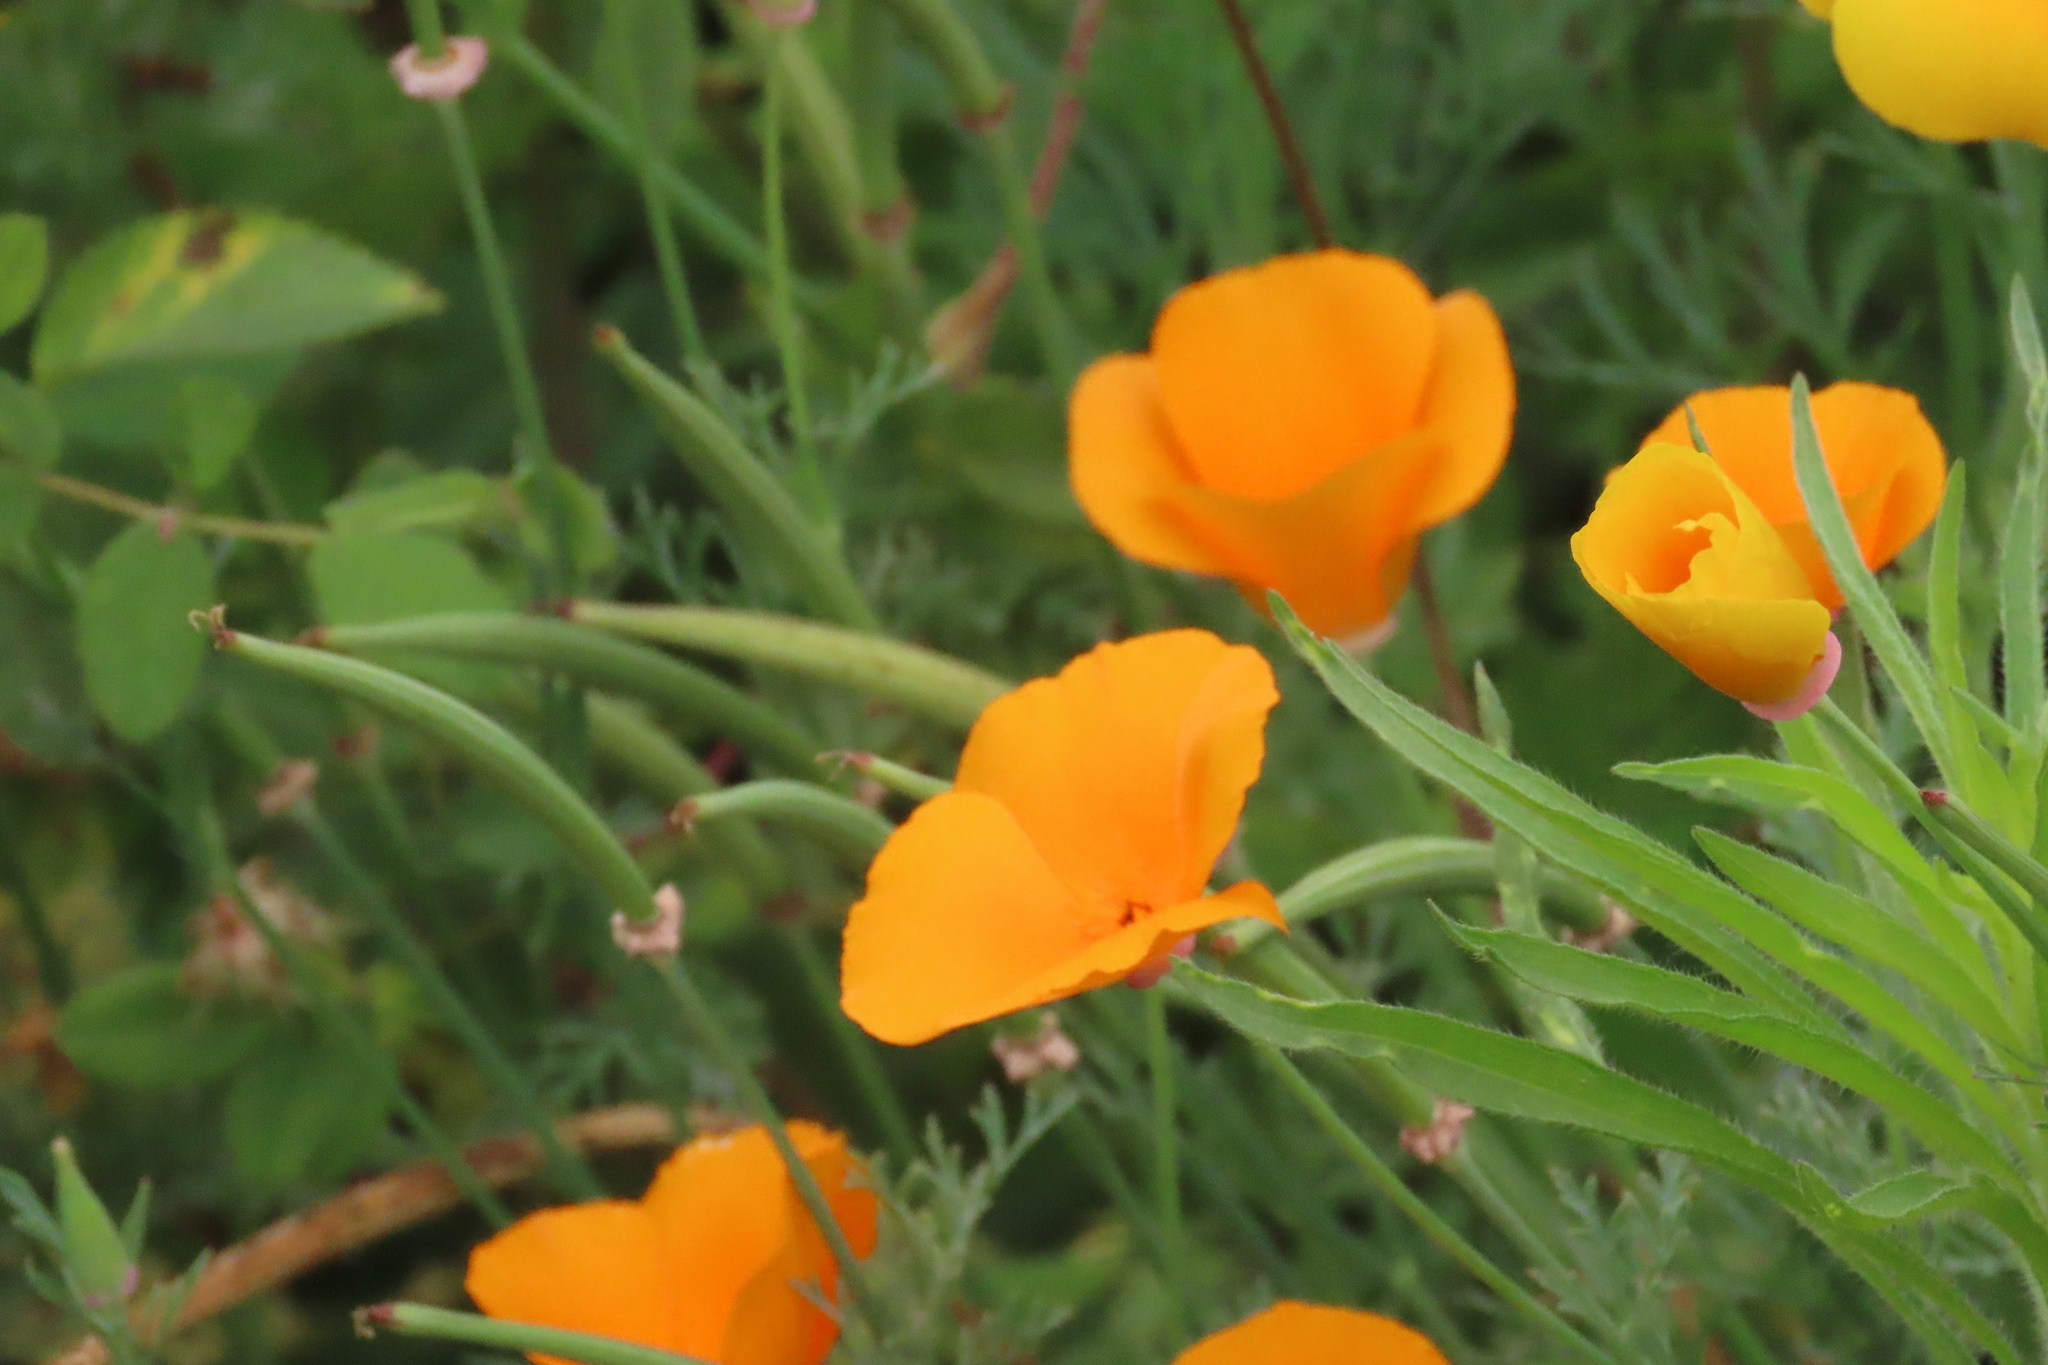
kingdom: Plantae
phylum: Tracheophyta
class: Magnoliopsida
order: Ranunculales
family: Papaveraceae
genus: Eschscholzia
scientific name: Eschscholzia californica
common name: California poppy
